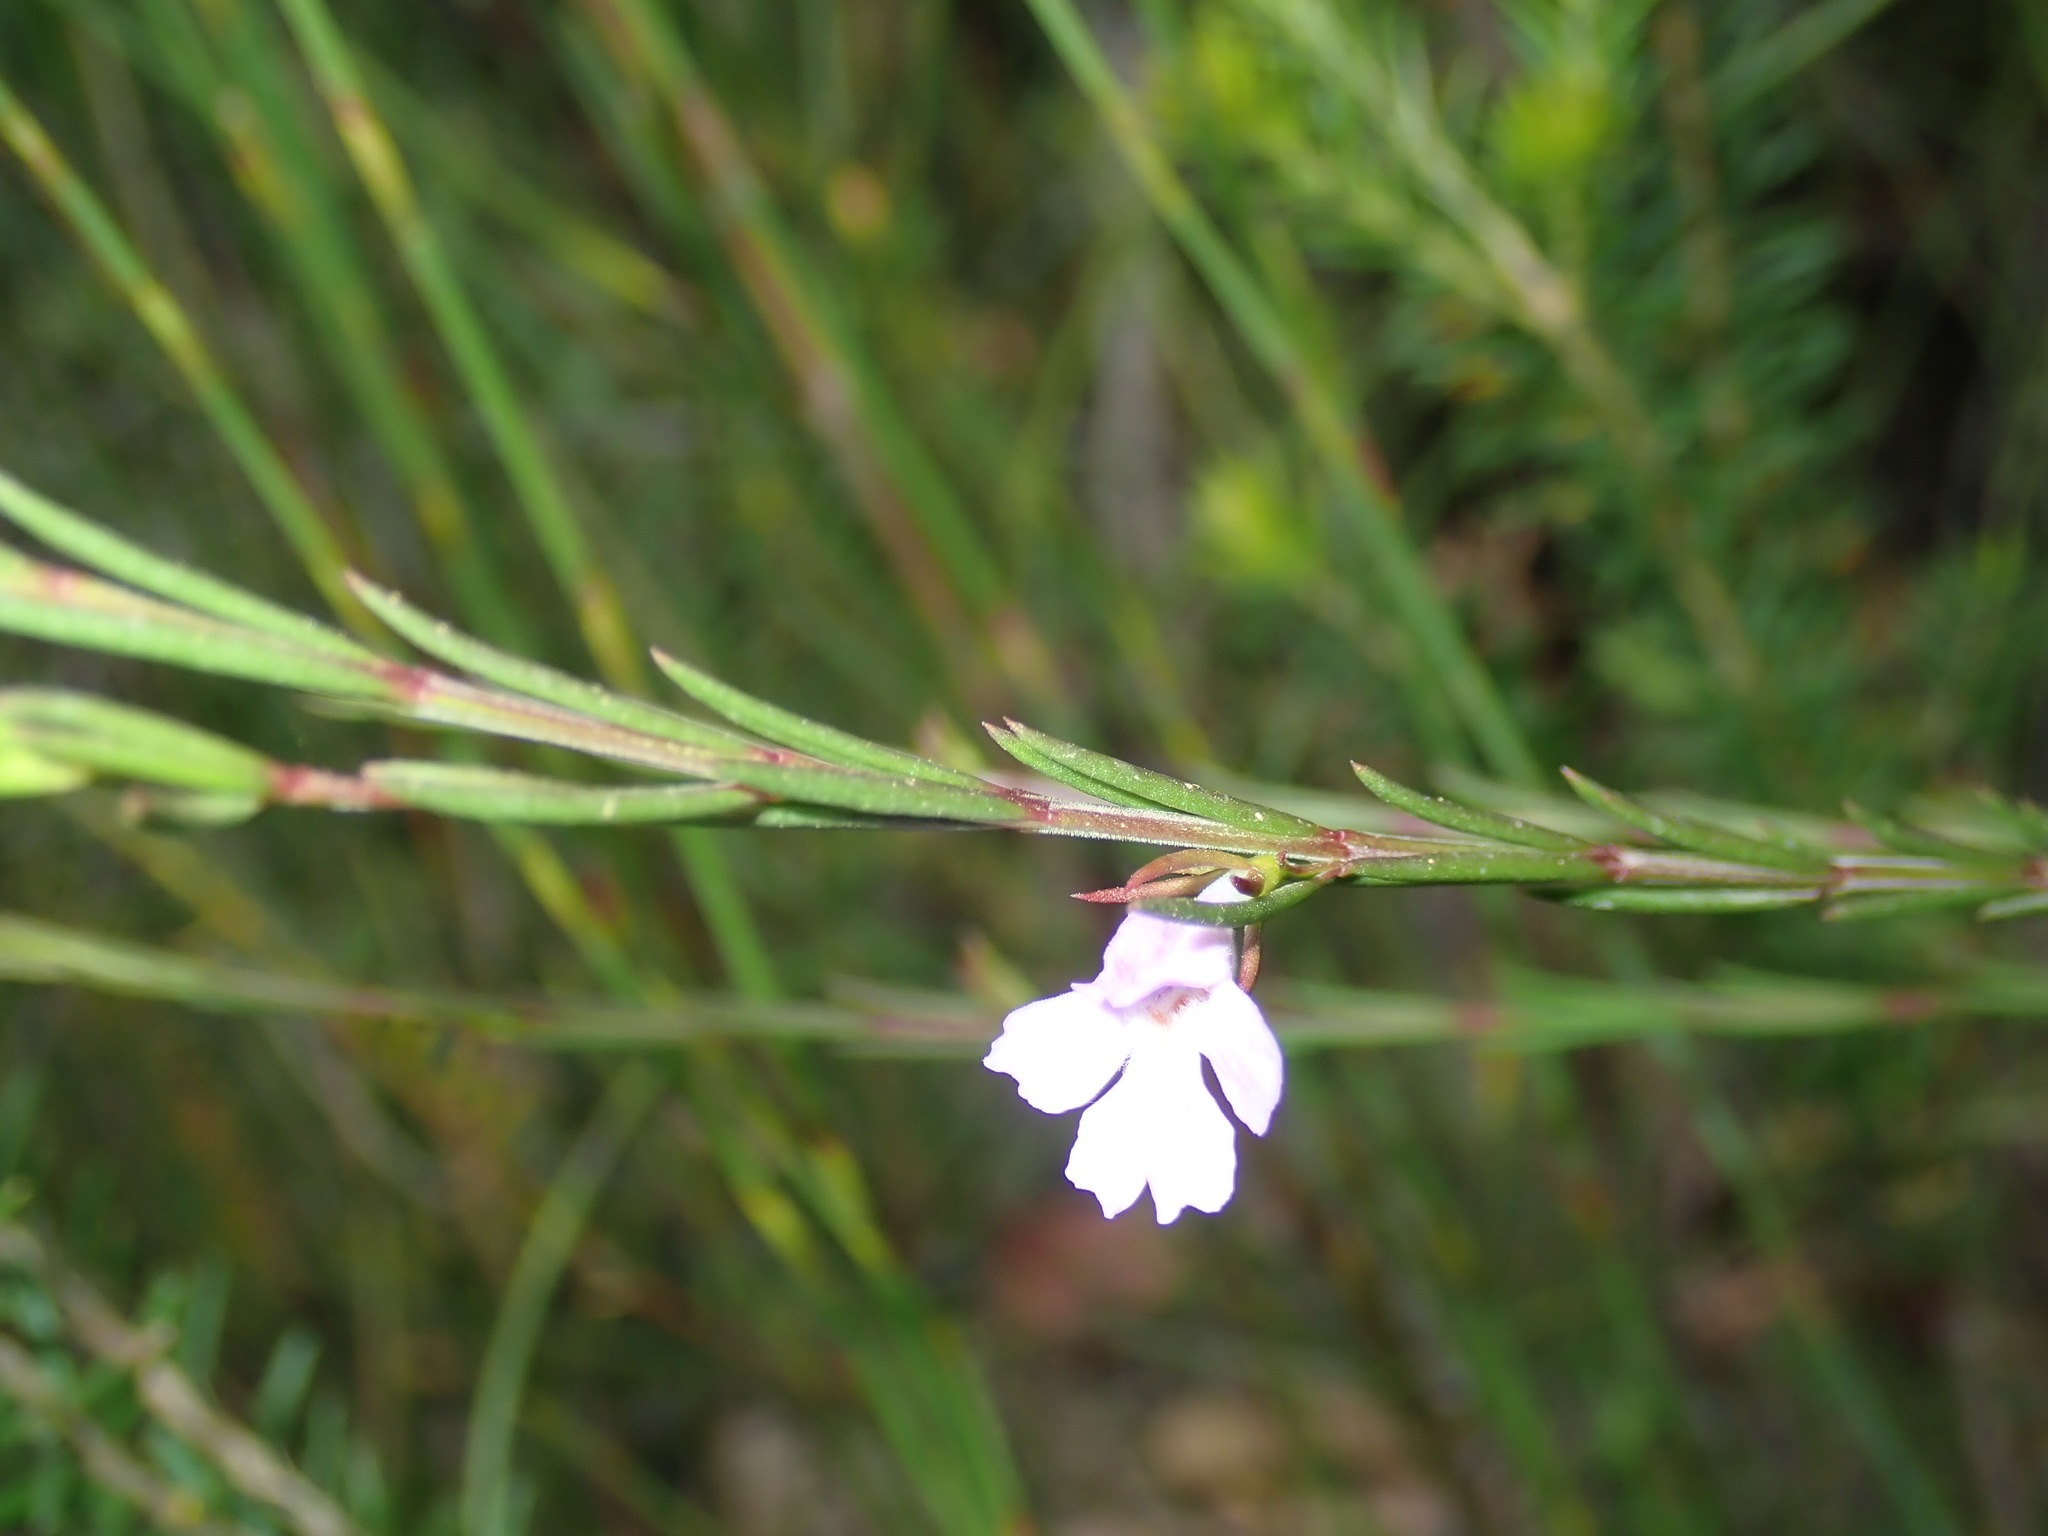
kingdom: Plantae
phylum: Tracheophyta
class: Magnoliopsida
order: Lamiales
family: Lamiaceae
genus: Hemigenia
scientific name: Hemigenia purpurea
